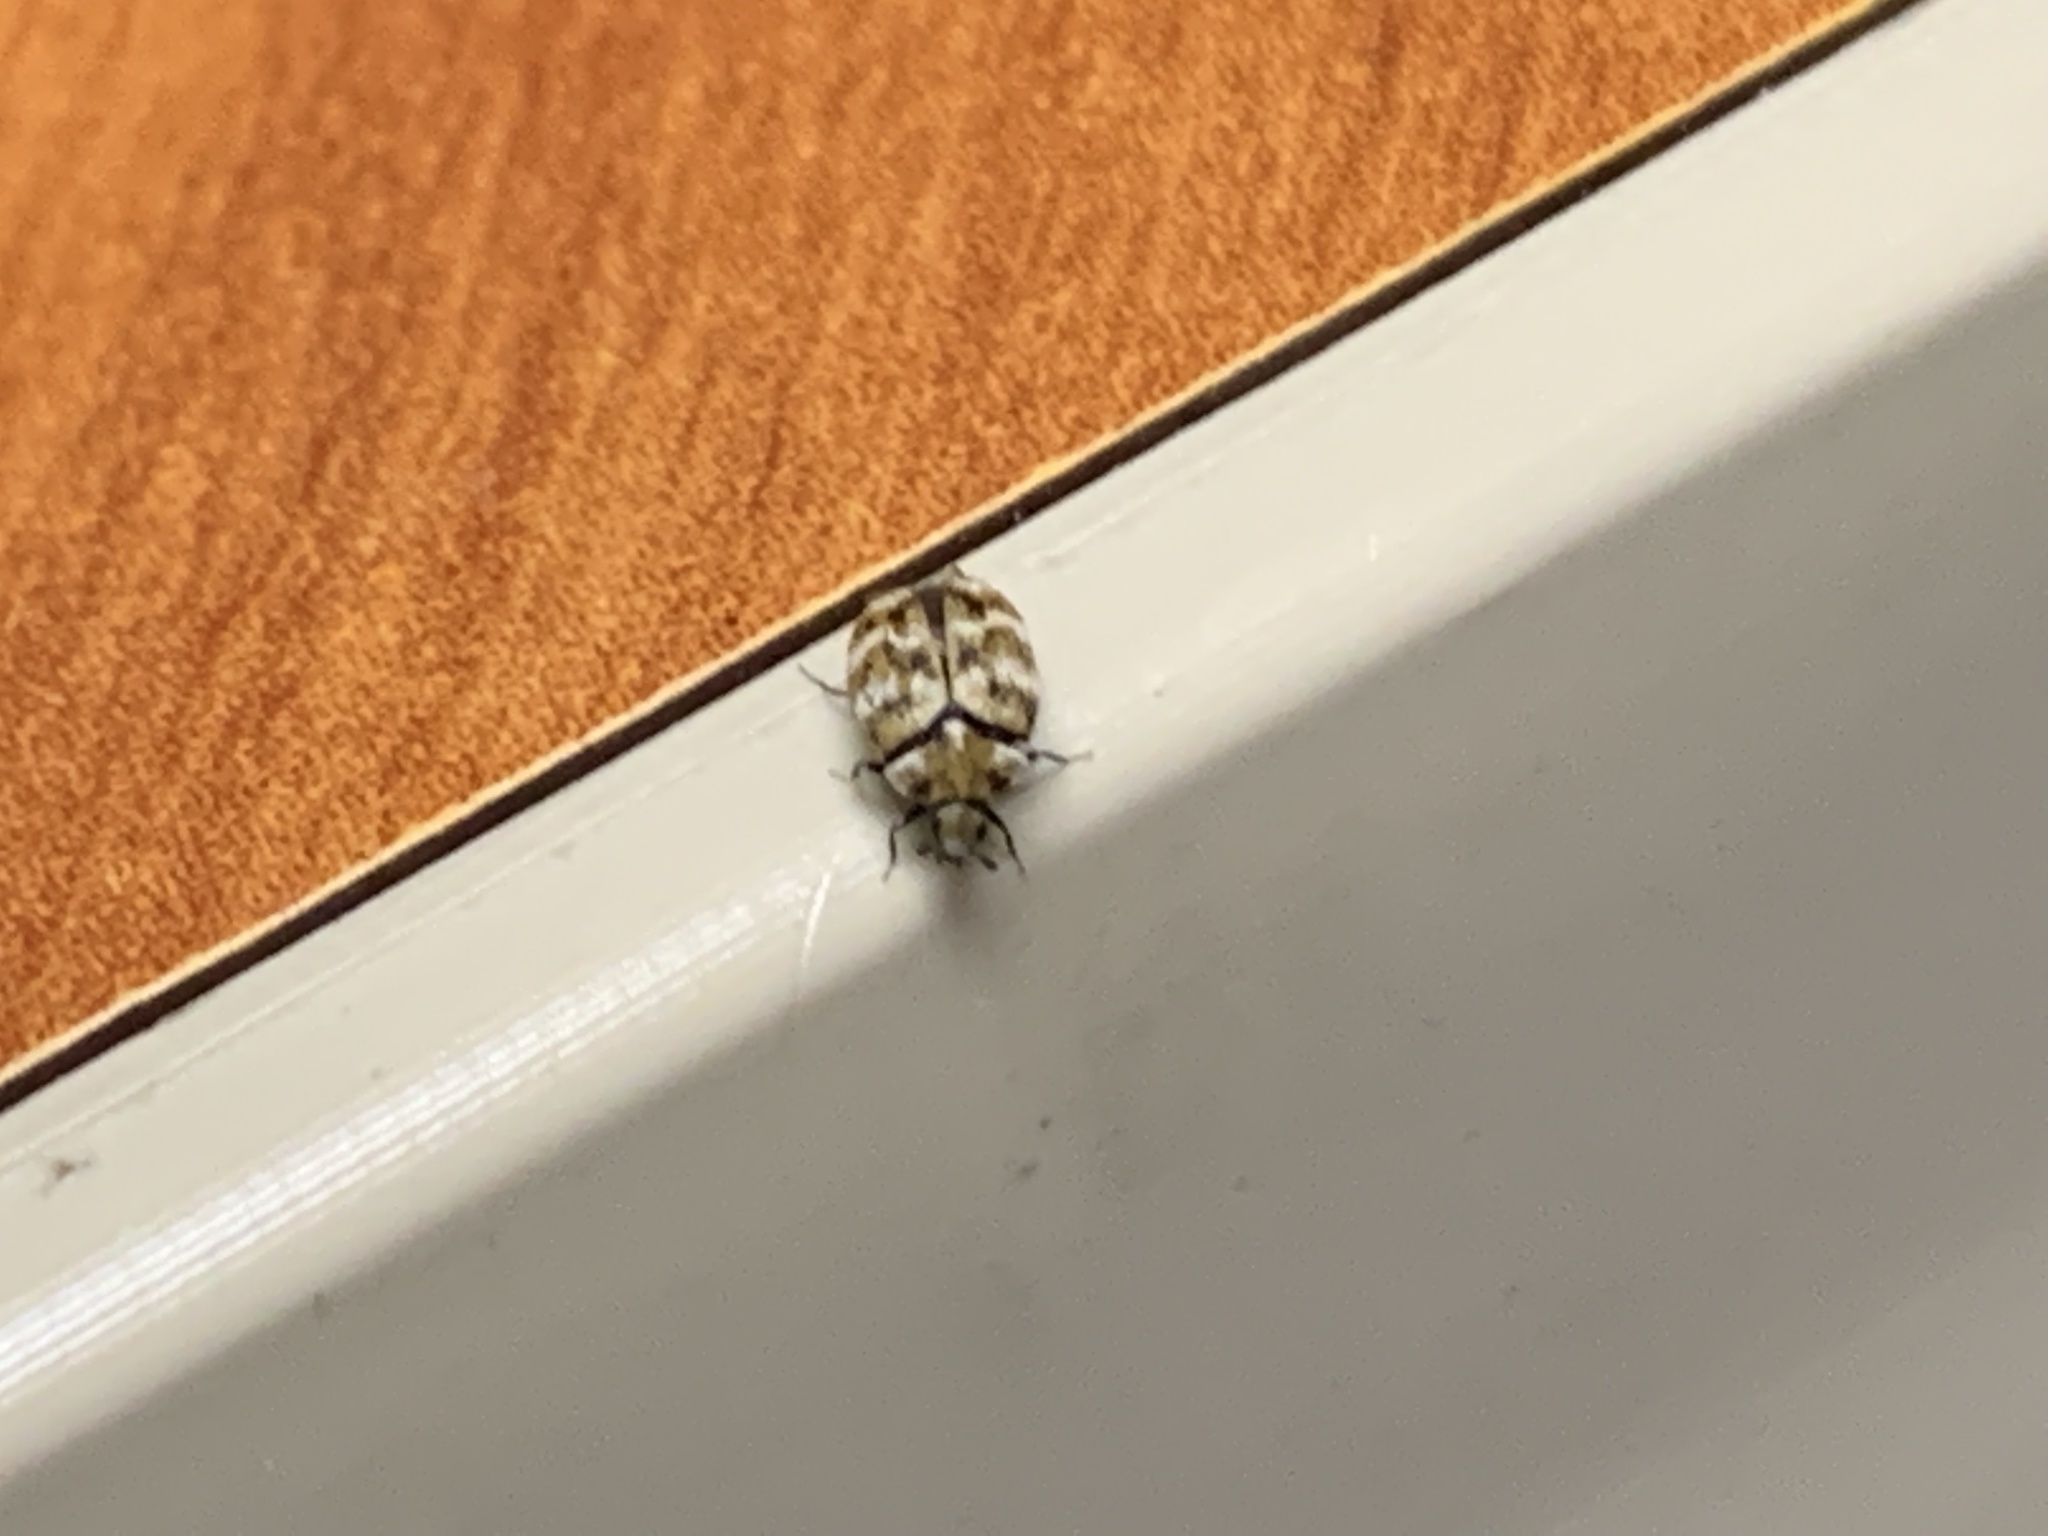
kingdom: Animalia
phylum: Arthropoda
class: Insecta
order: Coleoptera
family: Dermestidae
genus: Anthrenus
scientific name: Anthrenus verbasci
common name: Varied carpet beetle
